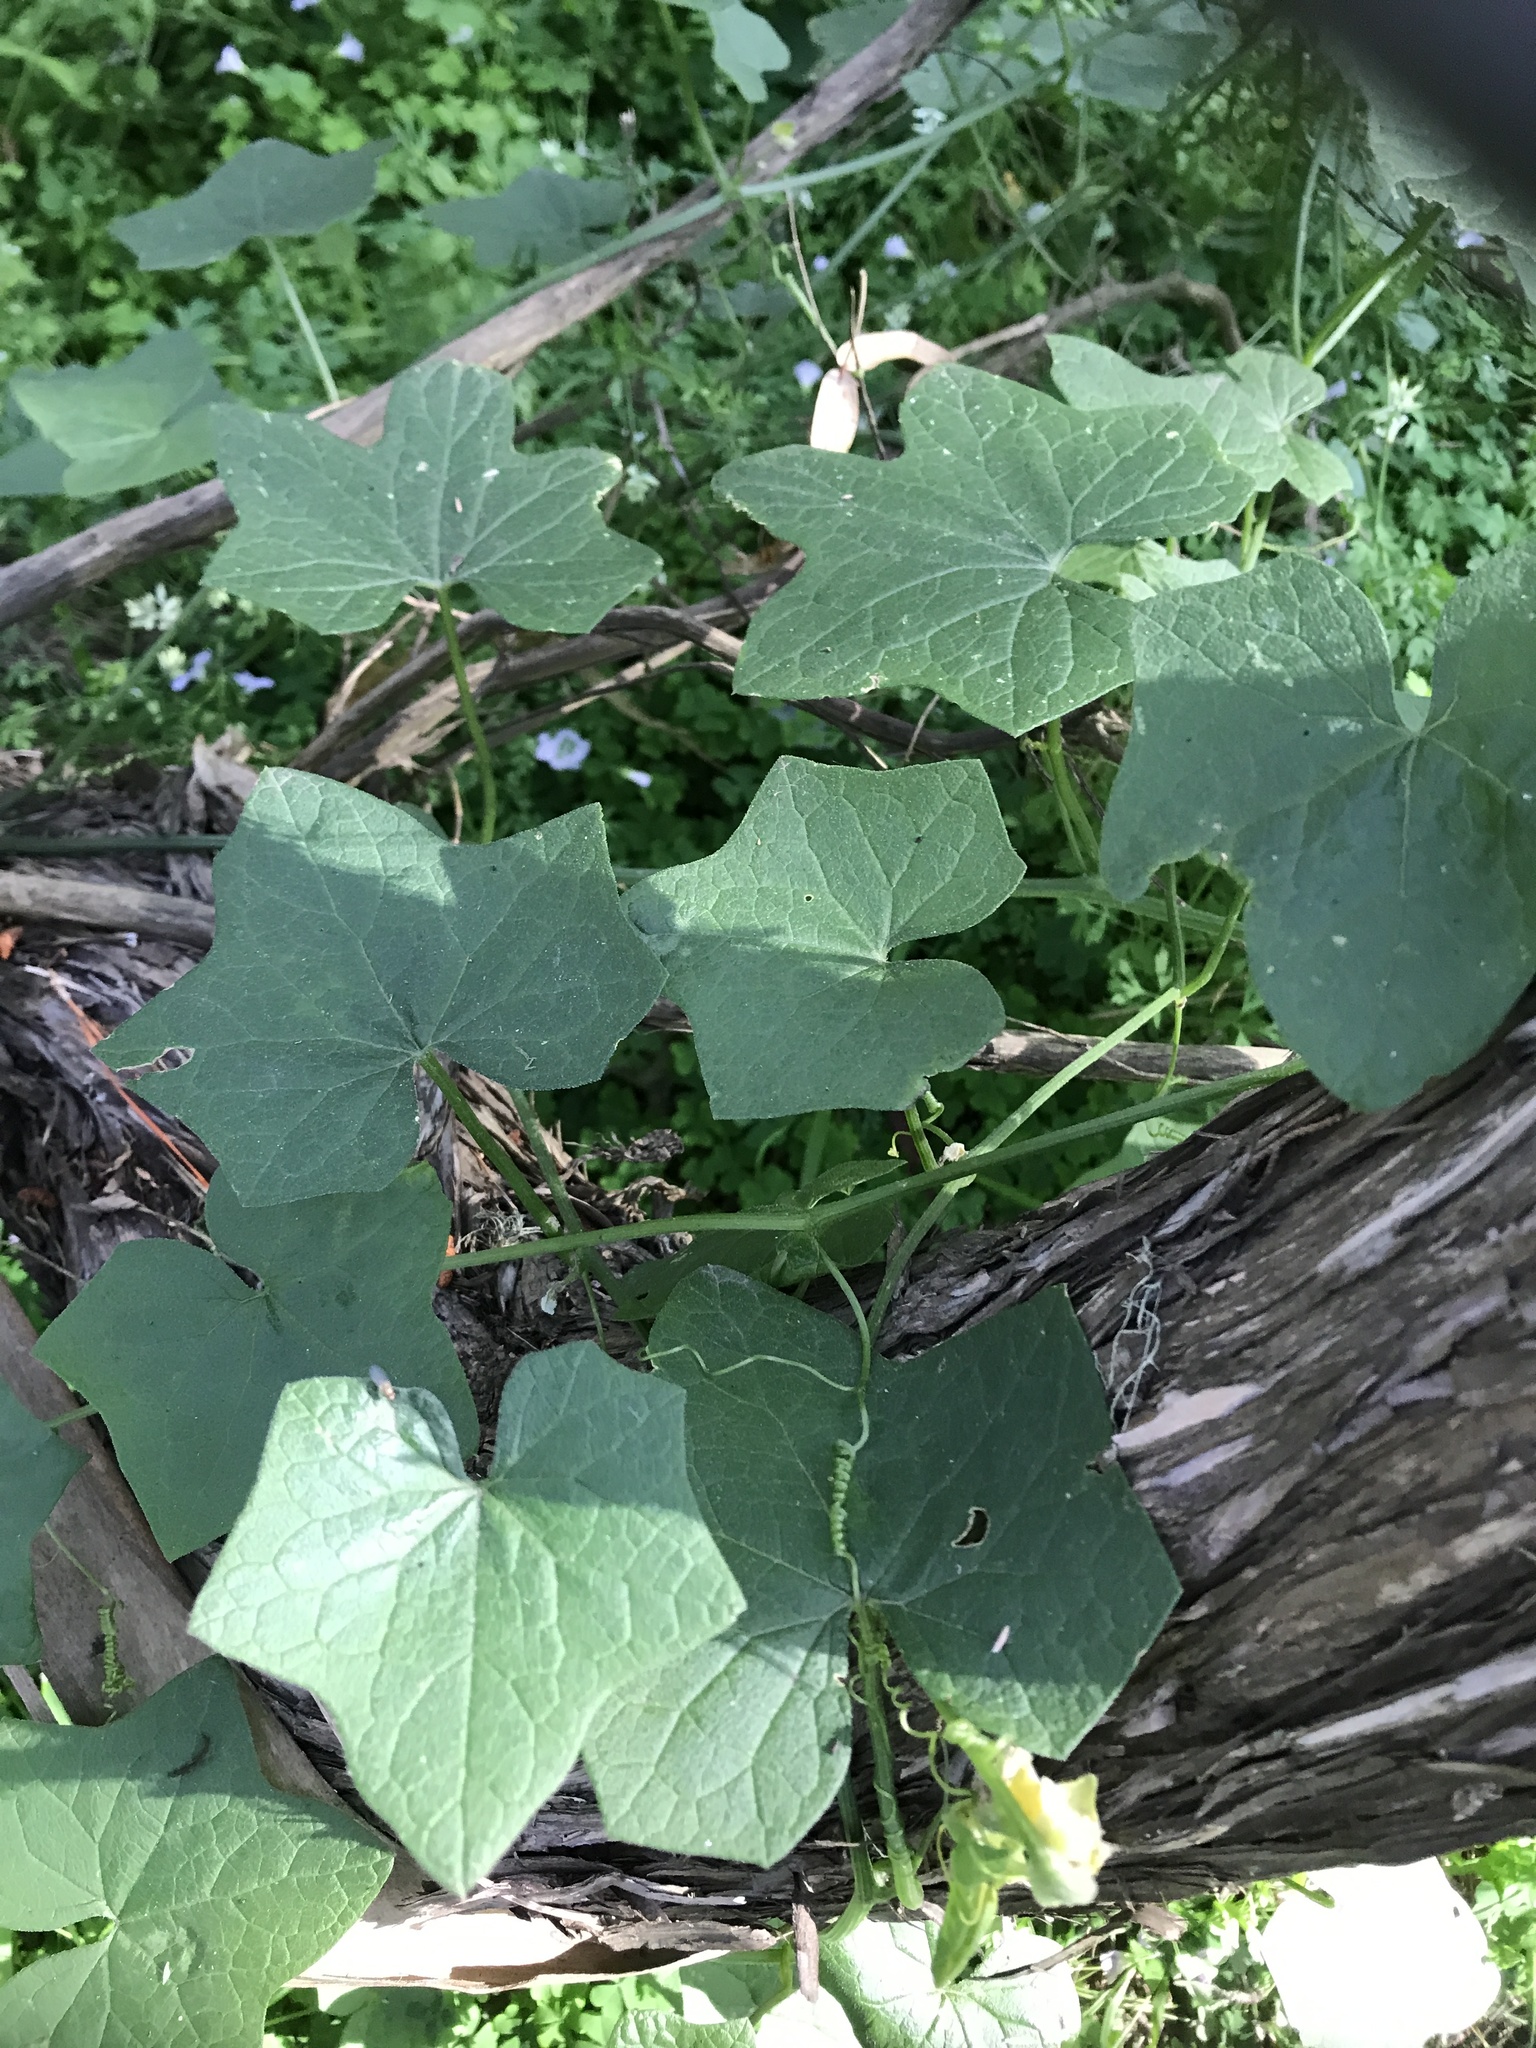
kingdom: Plantae
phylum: Tracheophyta
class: Magnoliopsida
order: Cucurbitales
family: Cucurbitaceae
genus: Marah
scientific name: Marah
